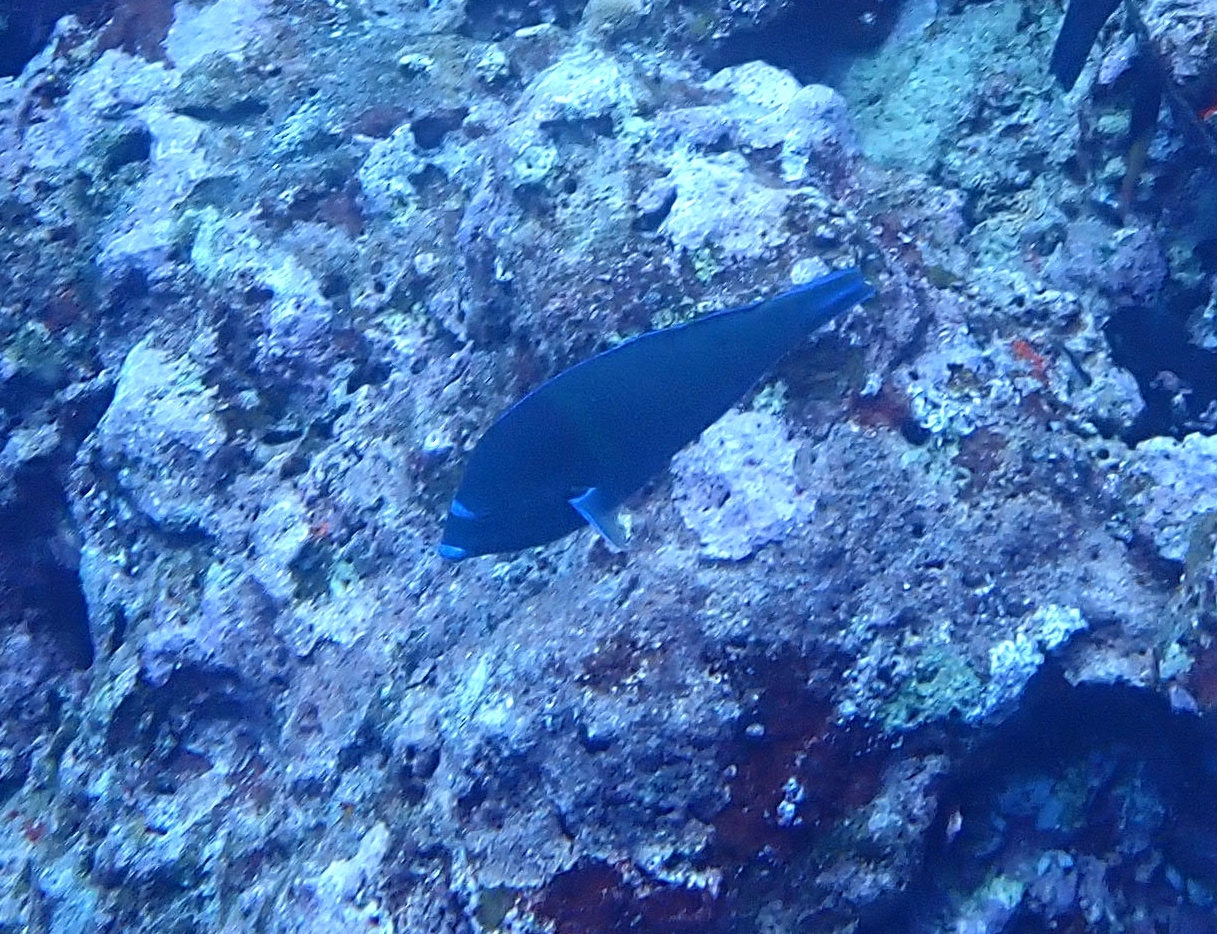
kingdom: Animalia
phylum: Chordata
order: Perciformes
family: Labridae
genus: Anampses
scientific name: Anampses caeruleopunctatus
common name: Bluespotted wrasse
